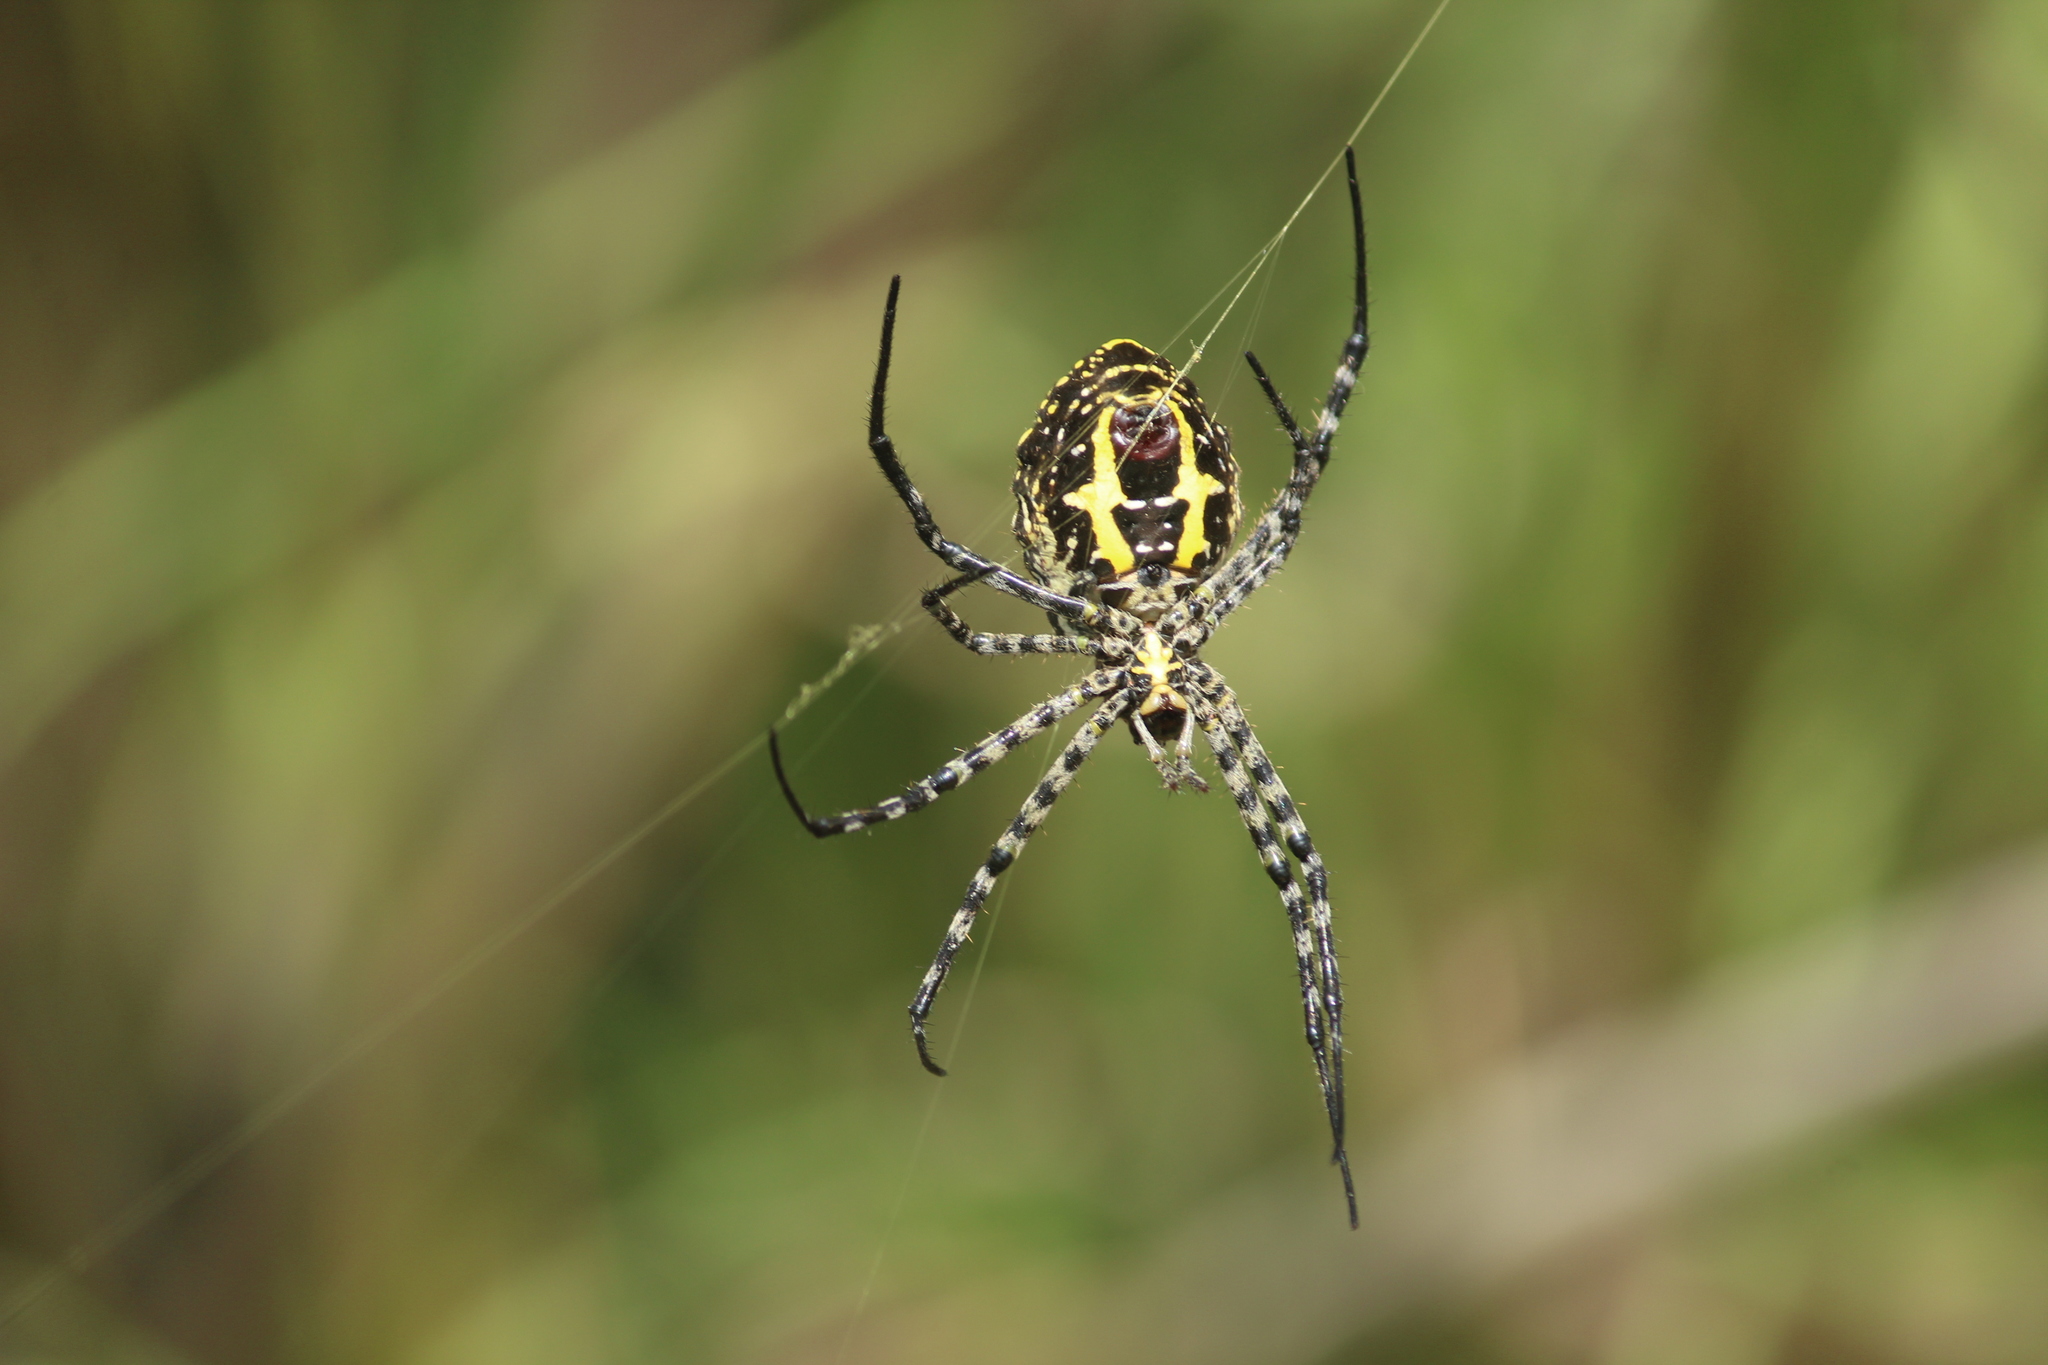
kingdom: Animalia
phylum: Arthropoda
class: Arachnida
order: Araneae
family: Araneidae
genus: Argiope
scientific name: Argiope aemula
